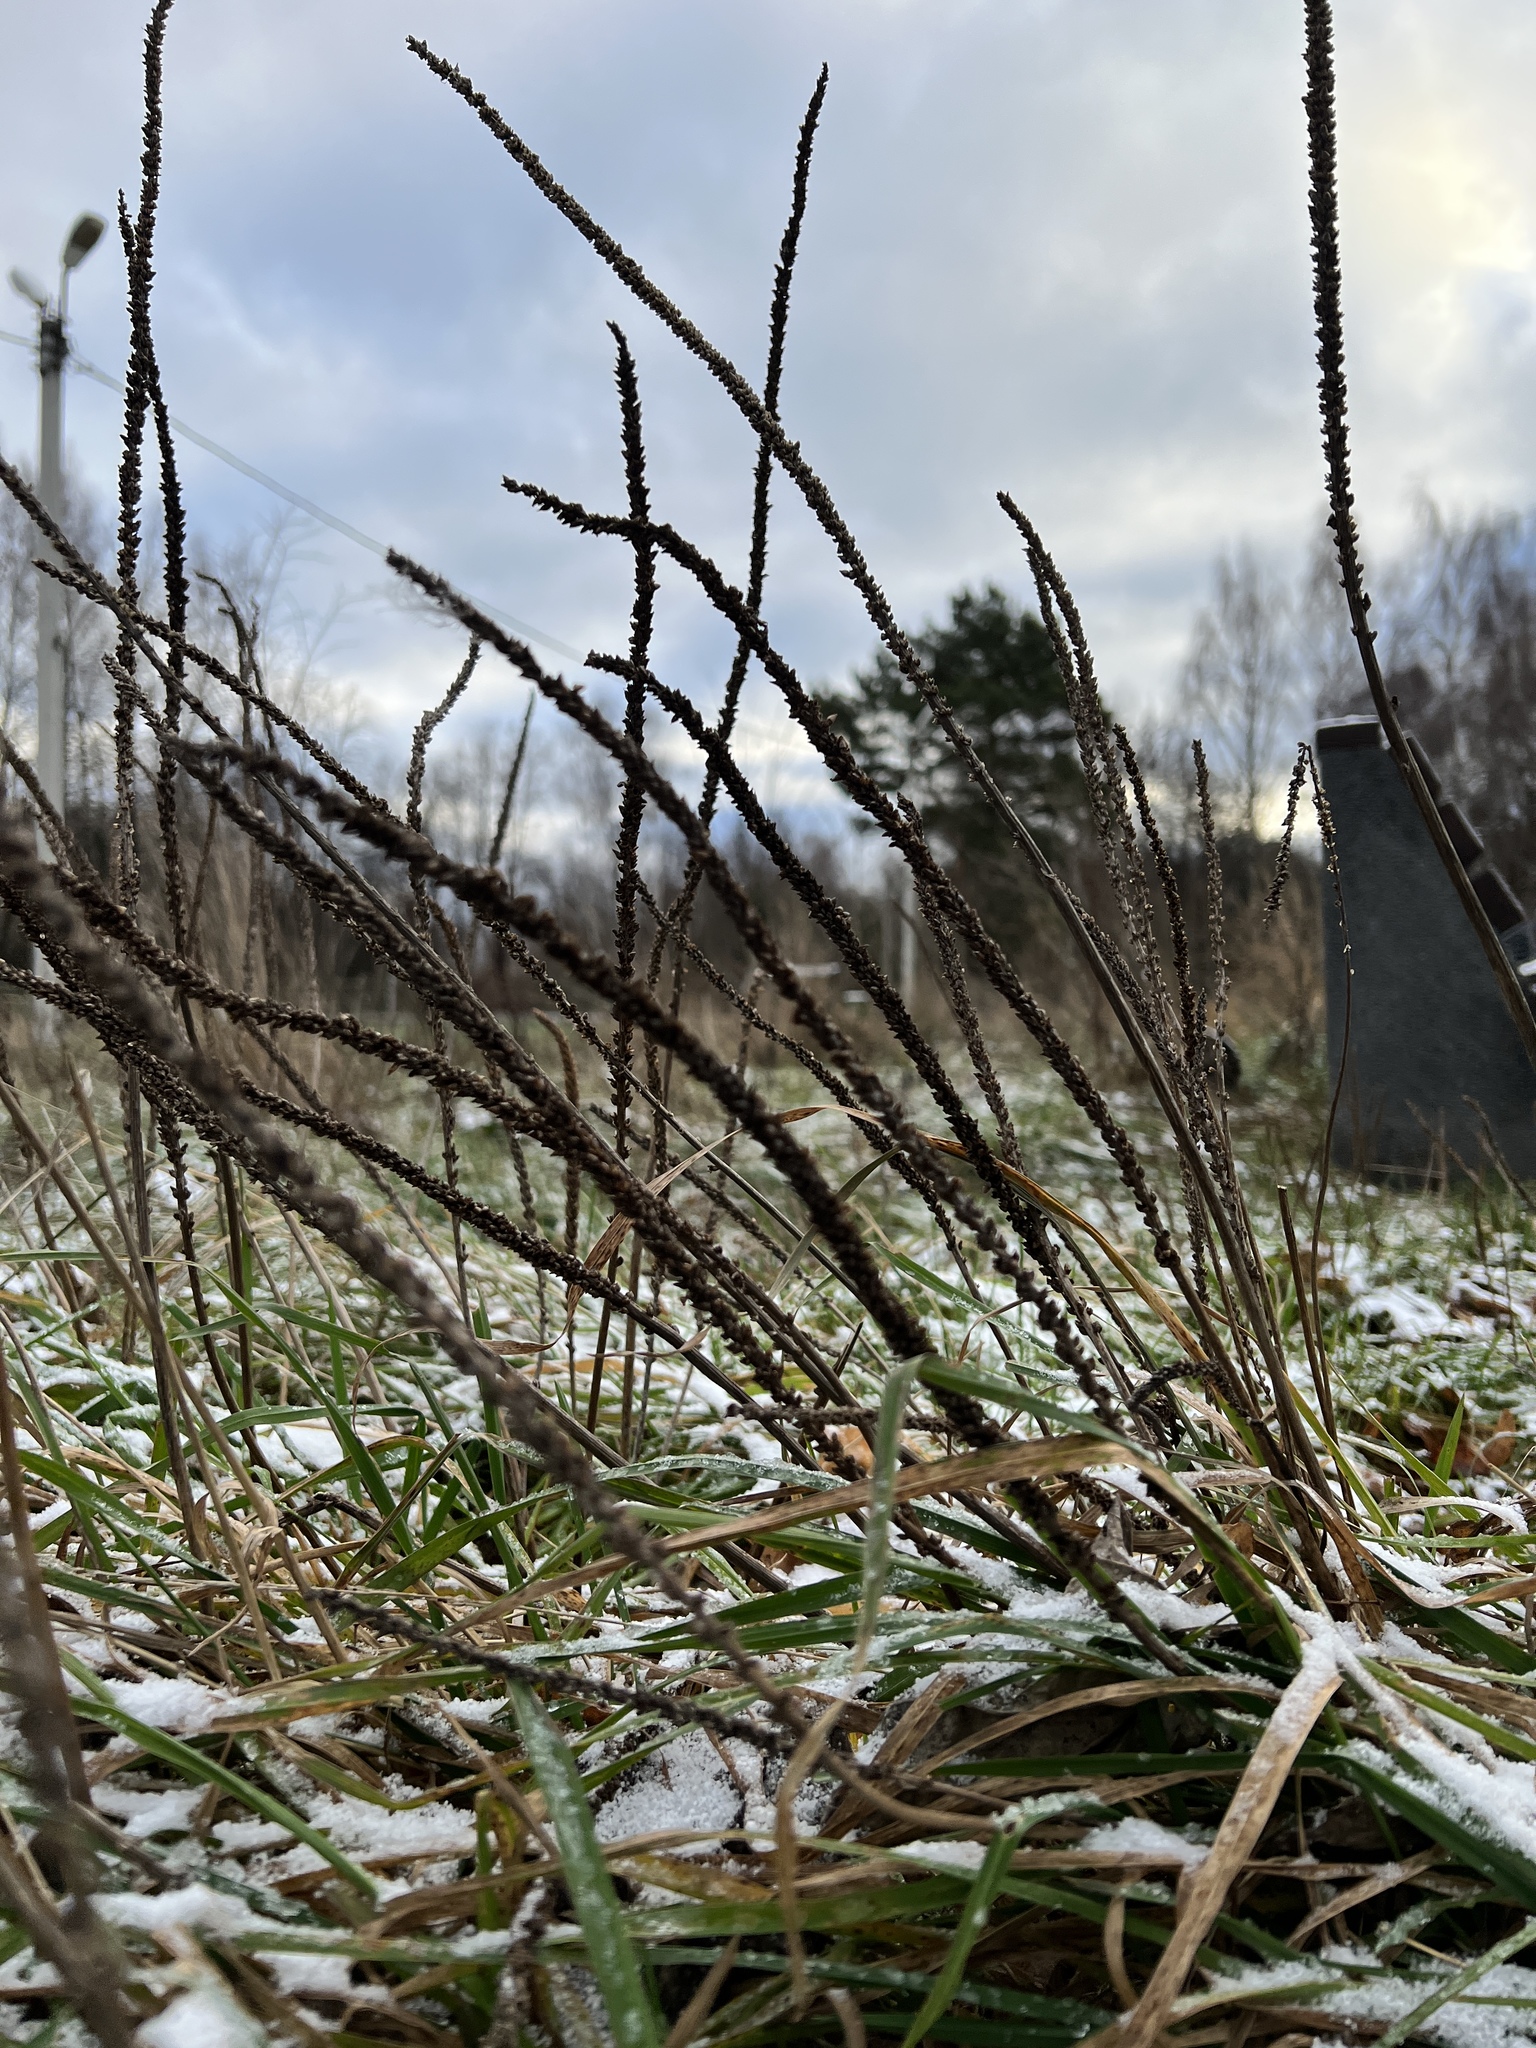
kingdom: Plantae
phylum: Tracheophyta
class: Magnoliopsida
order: Lamiales
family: Plantaginaceae
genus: Plantago
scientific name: Plantago major
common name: Common plantain
